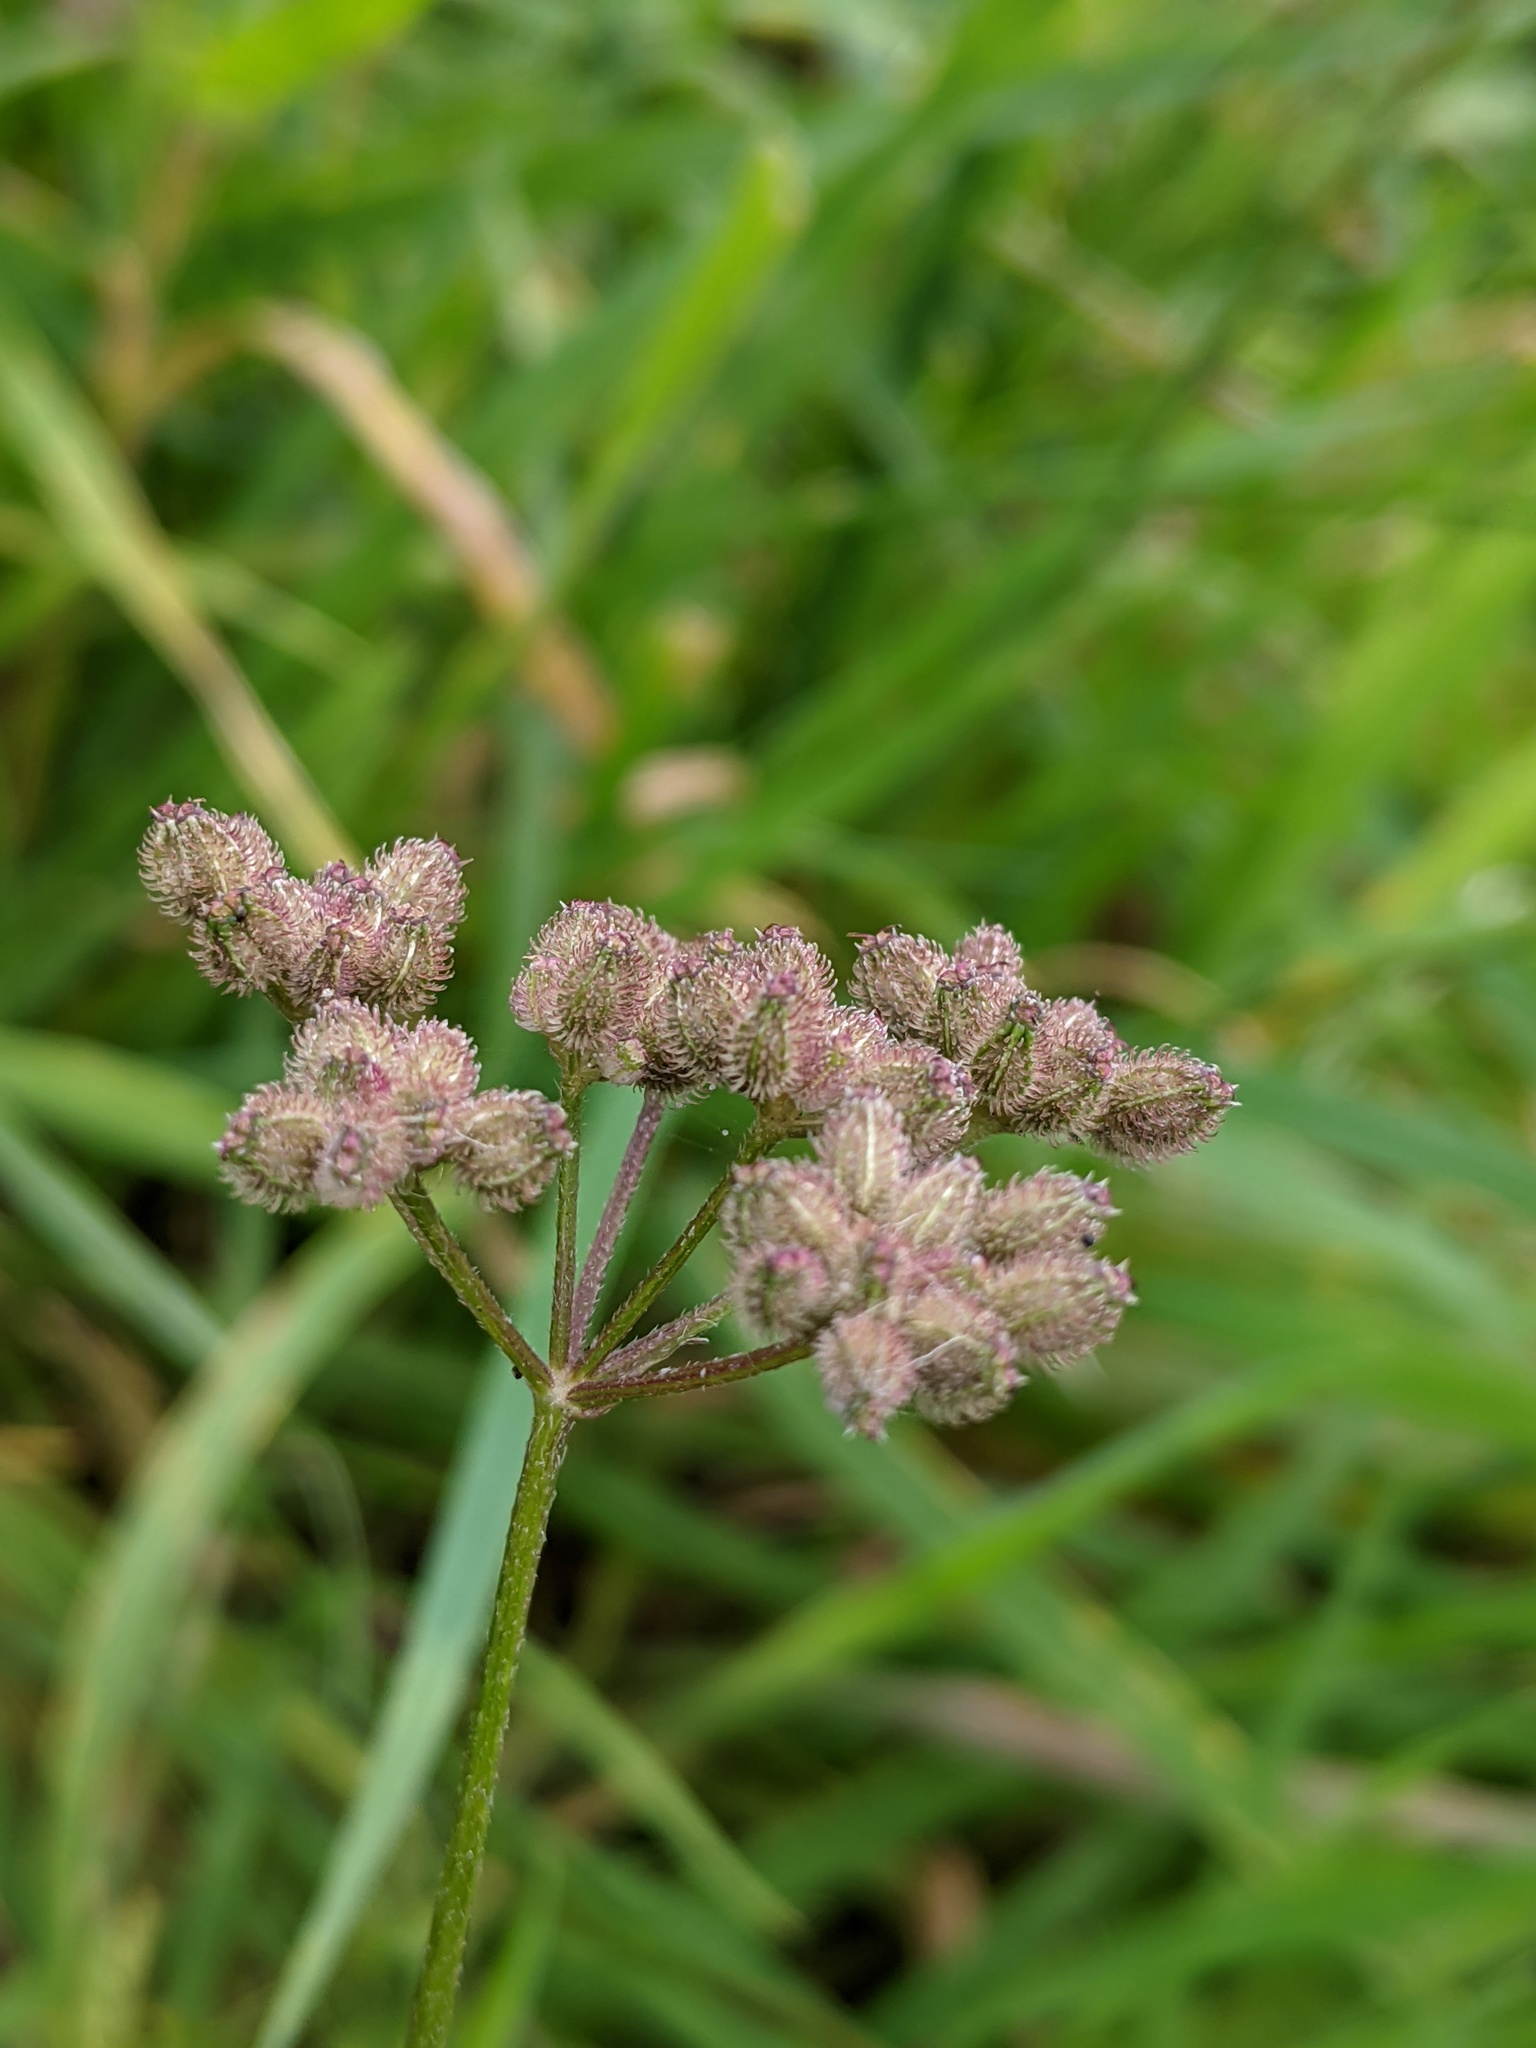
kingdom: Plantae
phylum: Tracheophyta
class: Magnoliopsida
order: Apiales
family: Apiaceae
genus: Torilis
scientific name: Torilis japonica
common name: Upright hedge-parsley
